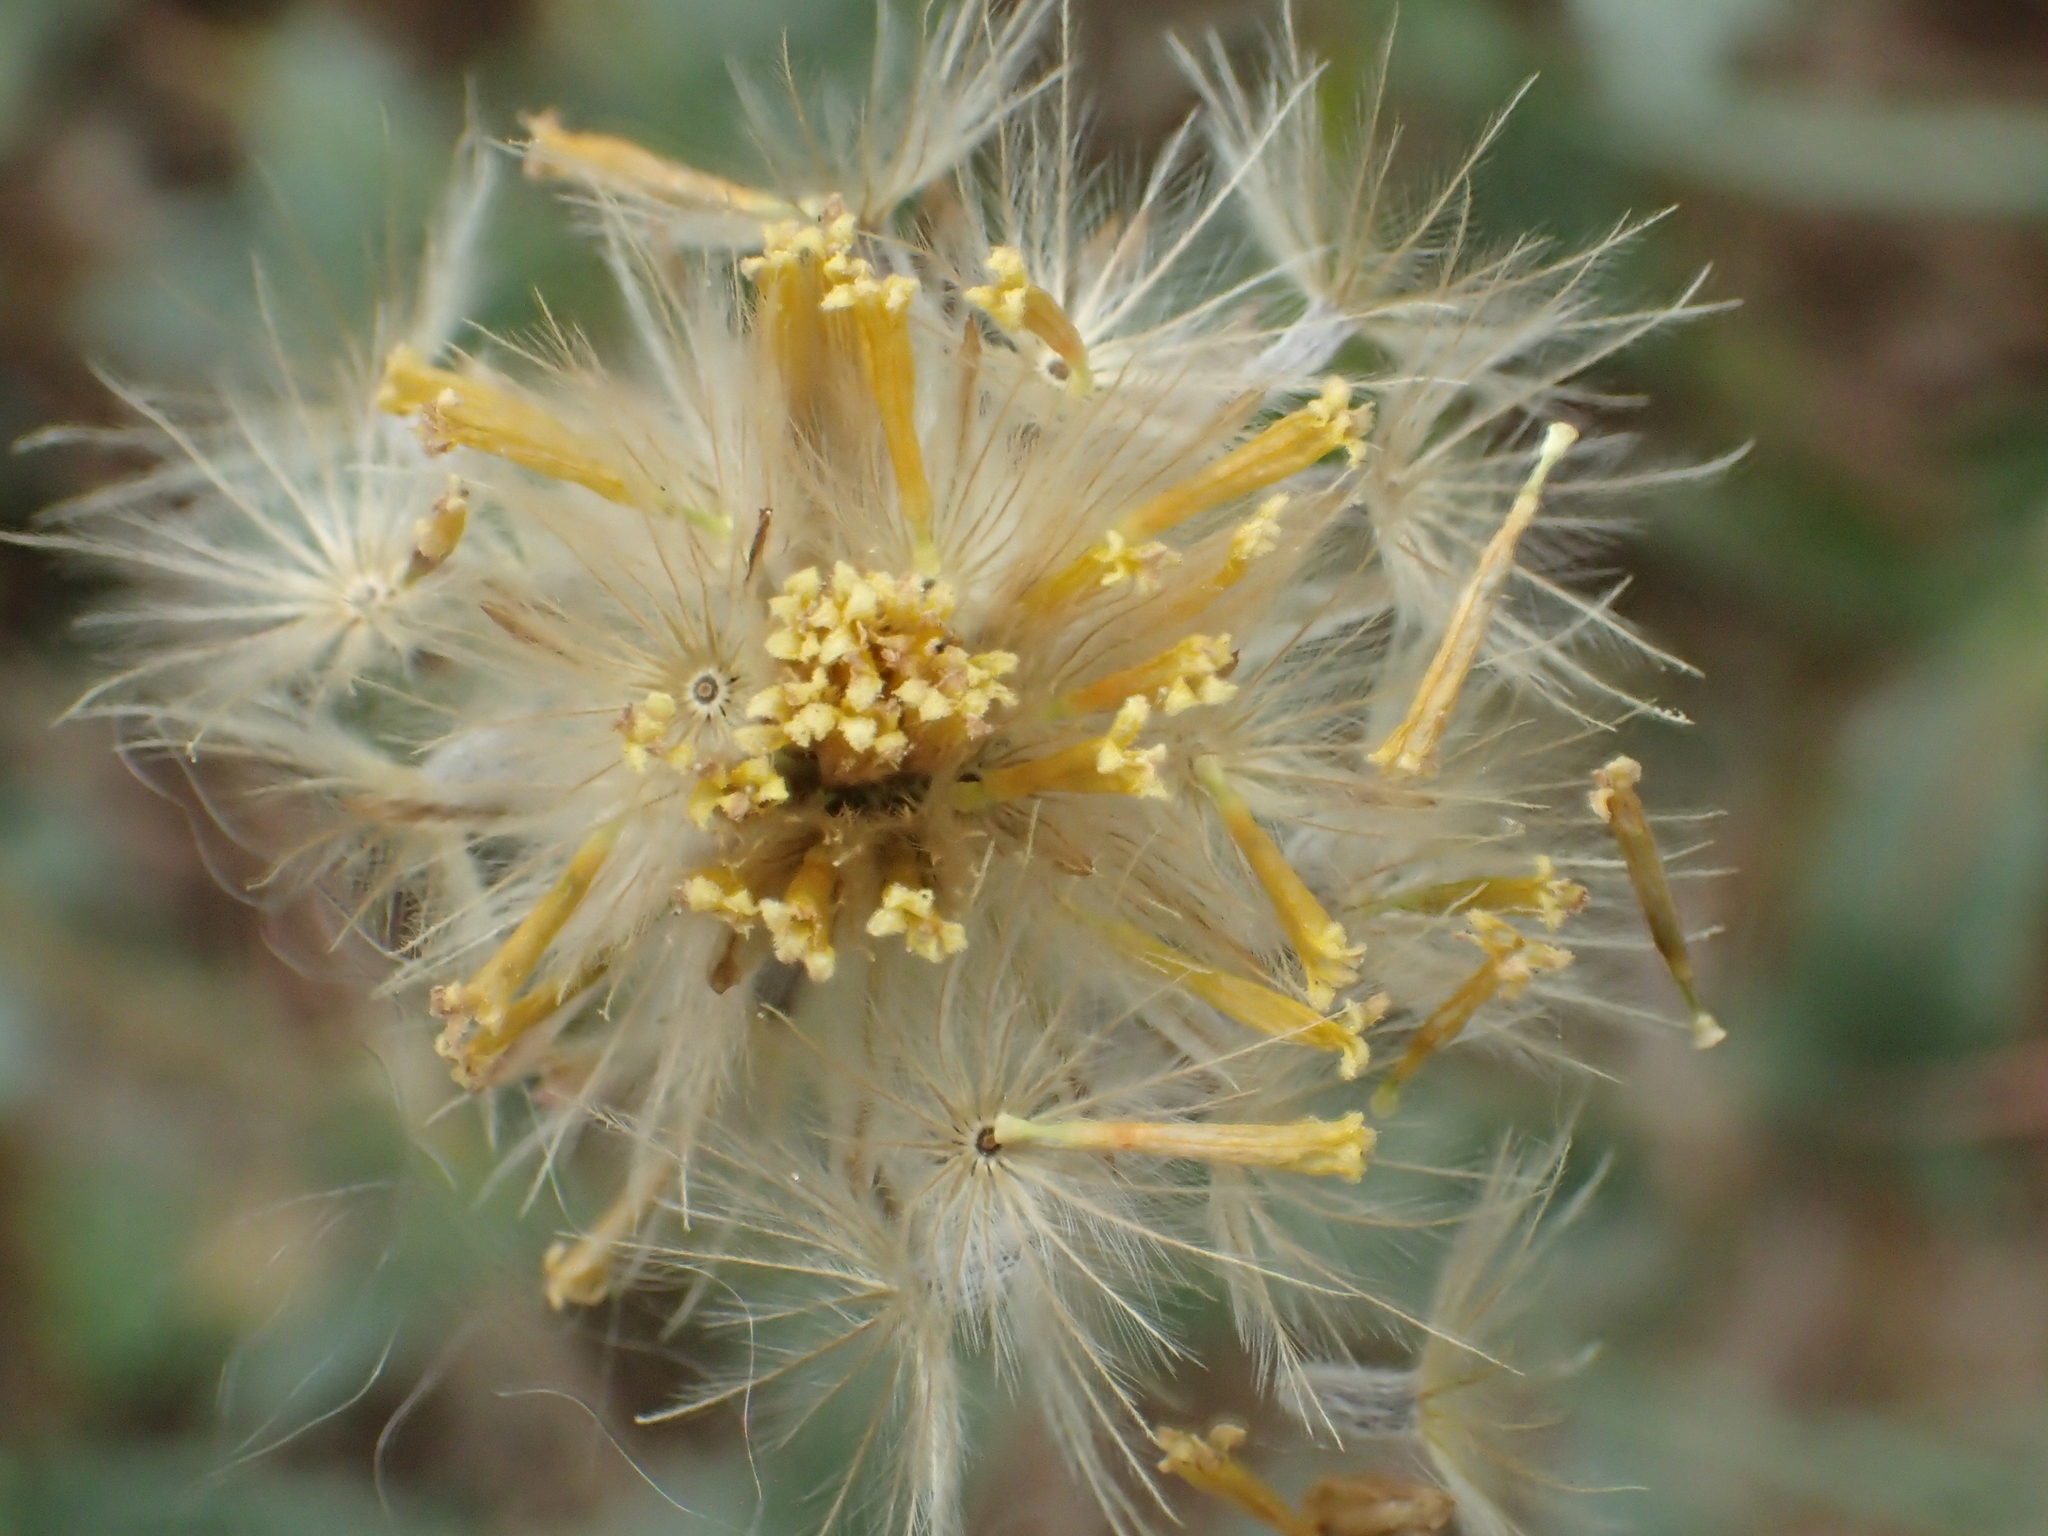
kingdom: Plantae
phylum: Tracheophyta
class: Magnoliopsida
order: Asterales
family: Asteraceae
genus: Tridax
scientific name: Tridax procumbens
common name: Coatbuttons
